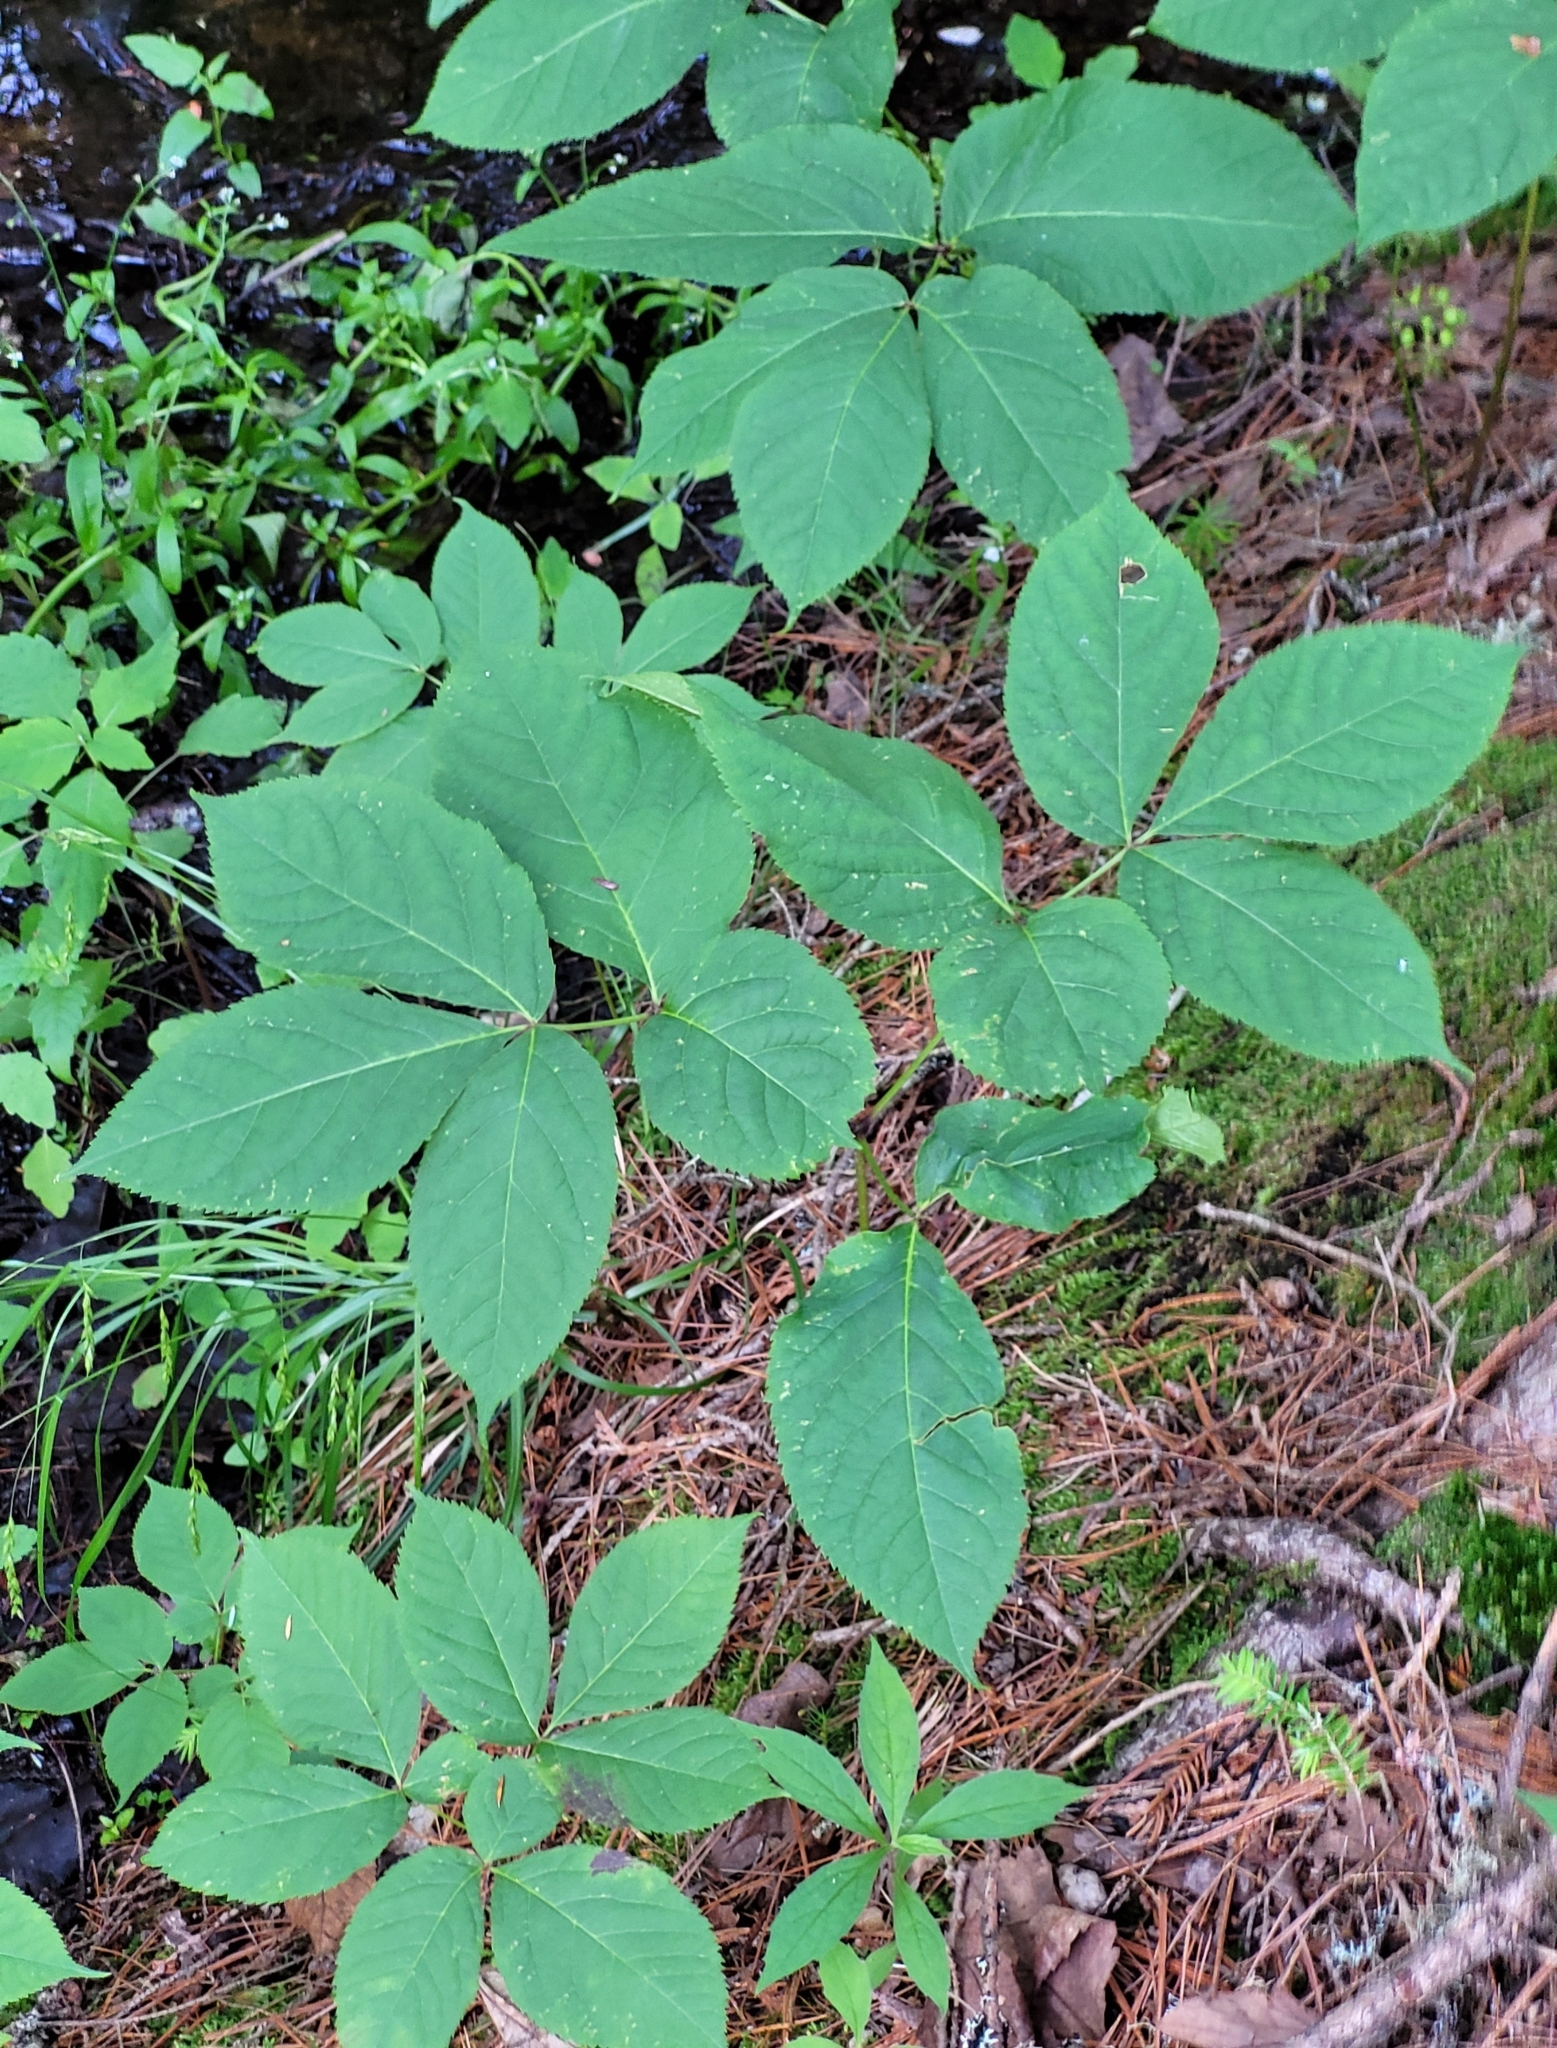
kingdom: Plantae
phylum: Tracheophyta
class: Magnoliopsida
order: Apiales
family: Araliaceae
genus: Aralia
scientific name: Aralia nudicaulis
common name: Wild sarsaparilla
